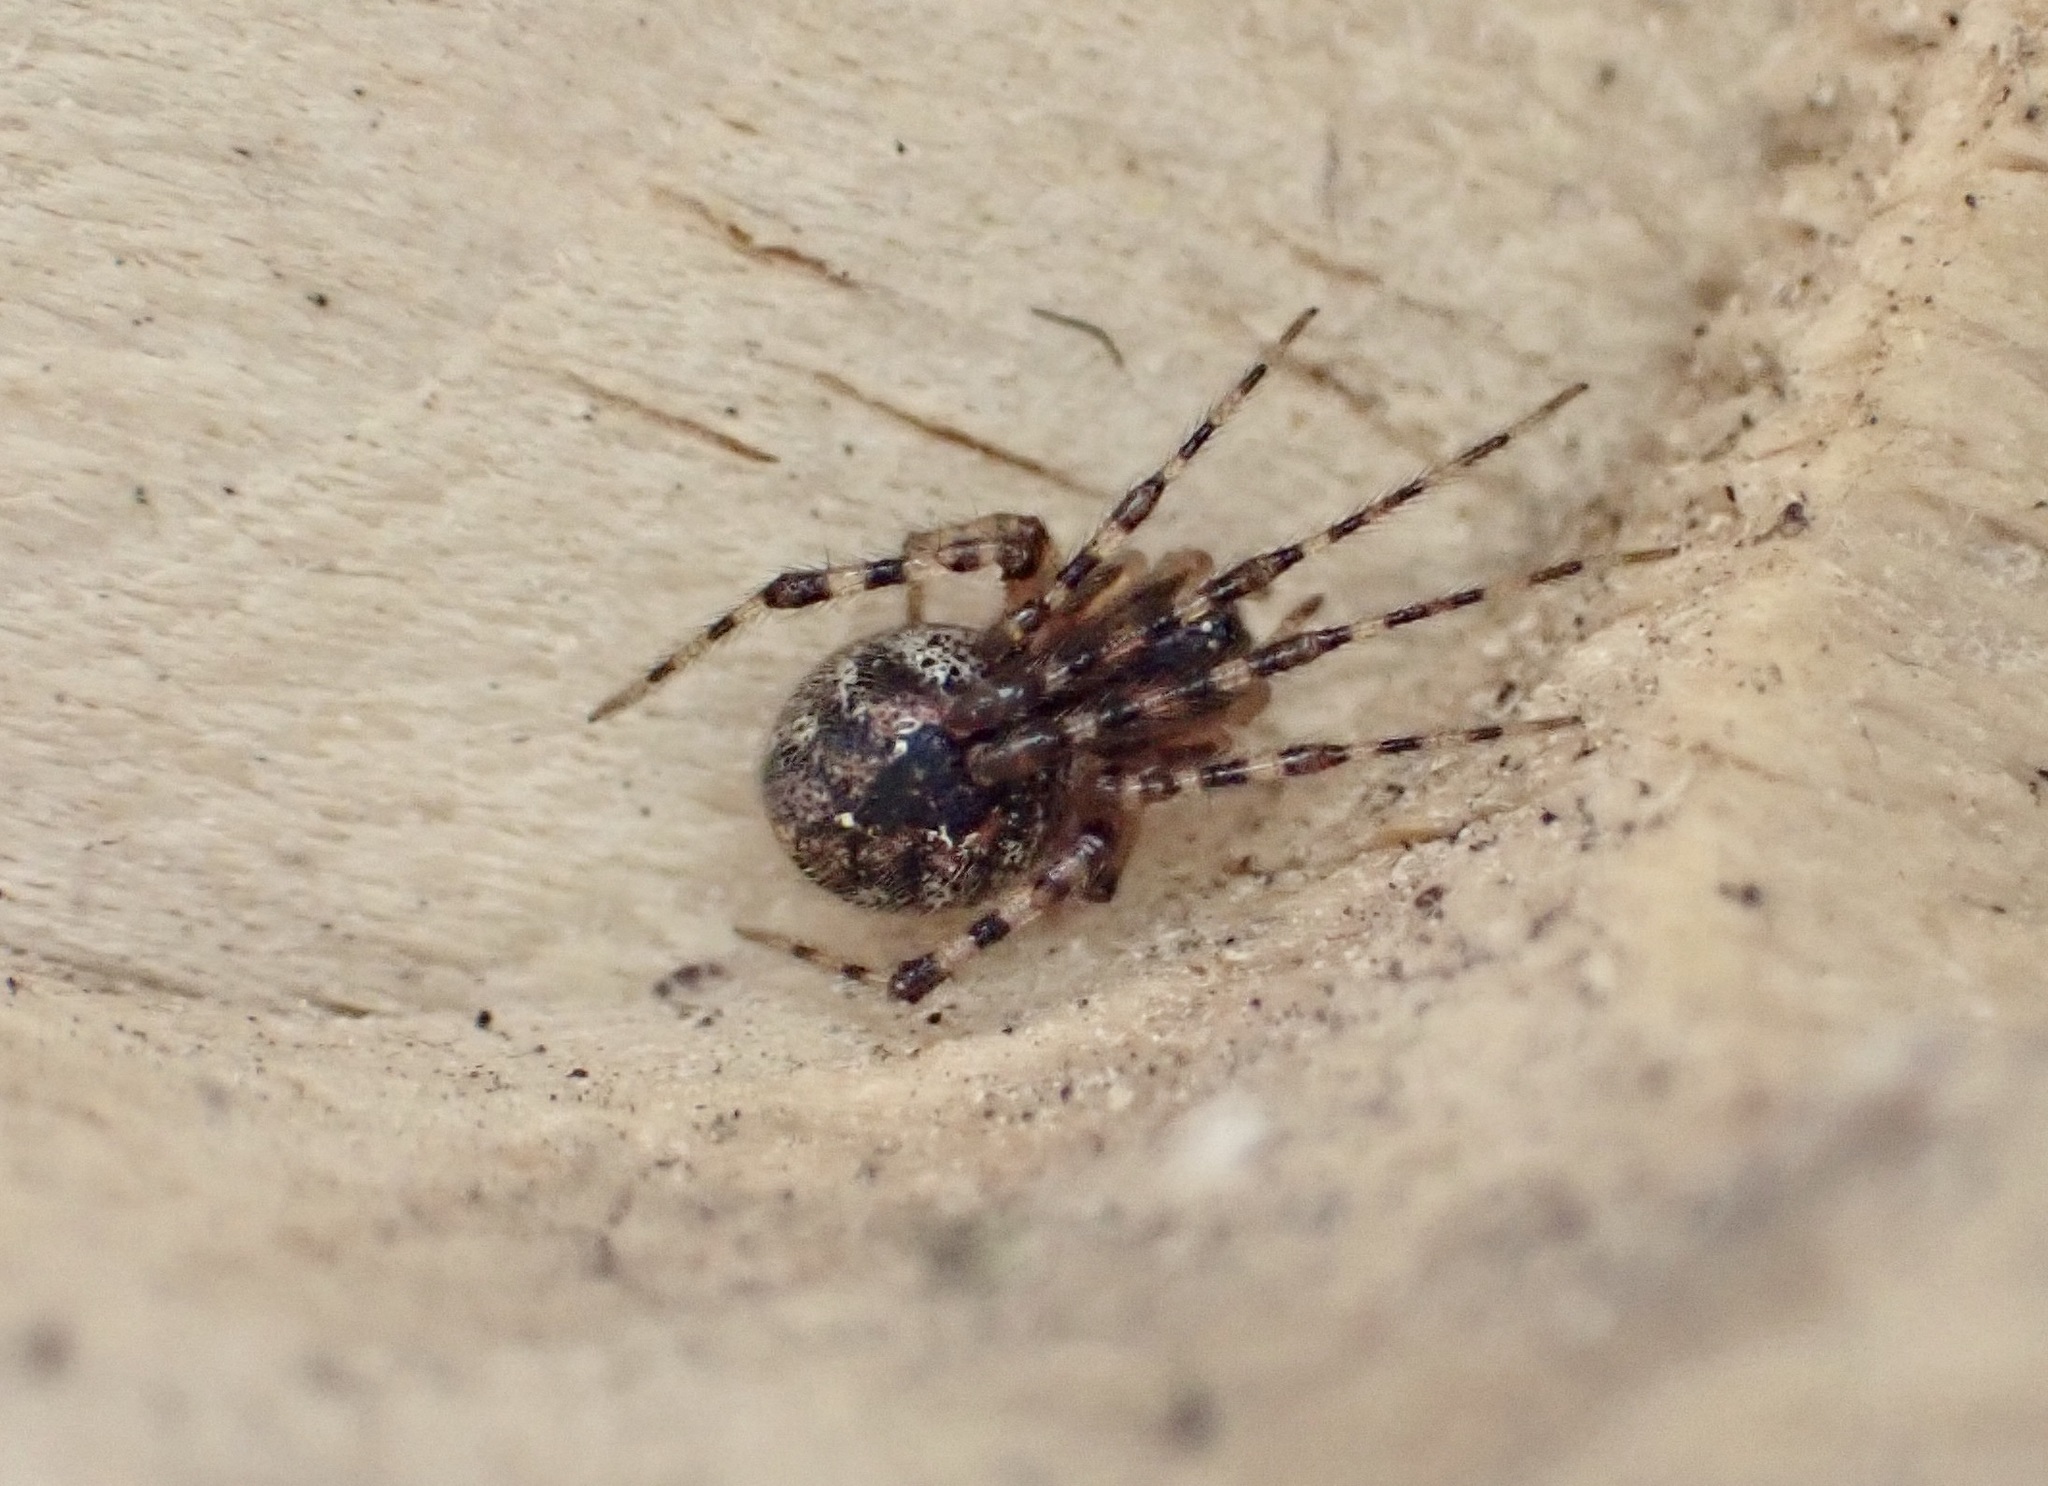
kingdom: Animalia
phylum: Arthropoda
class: Arachnida
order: Araneae
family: Theridiidae
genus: Cryptachaea
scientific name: Cryptachaea veruculata
